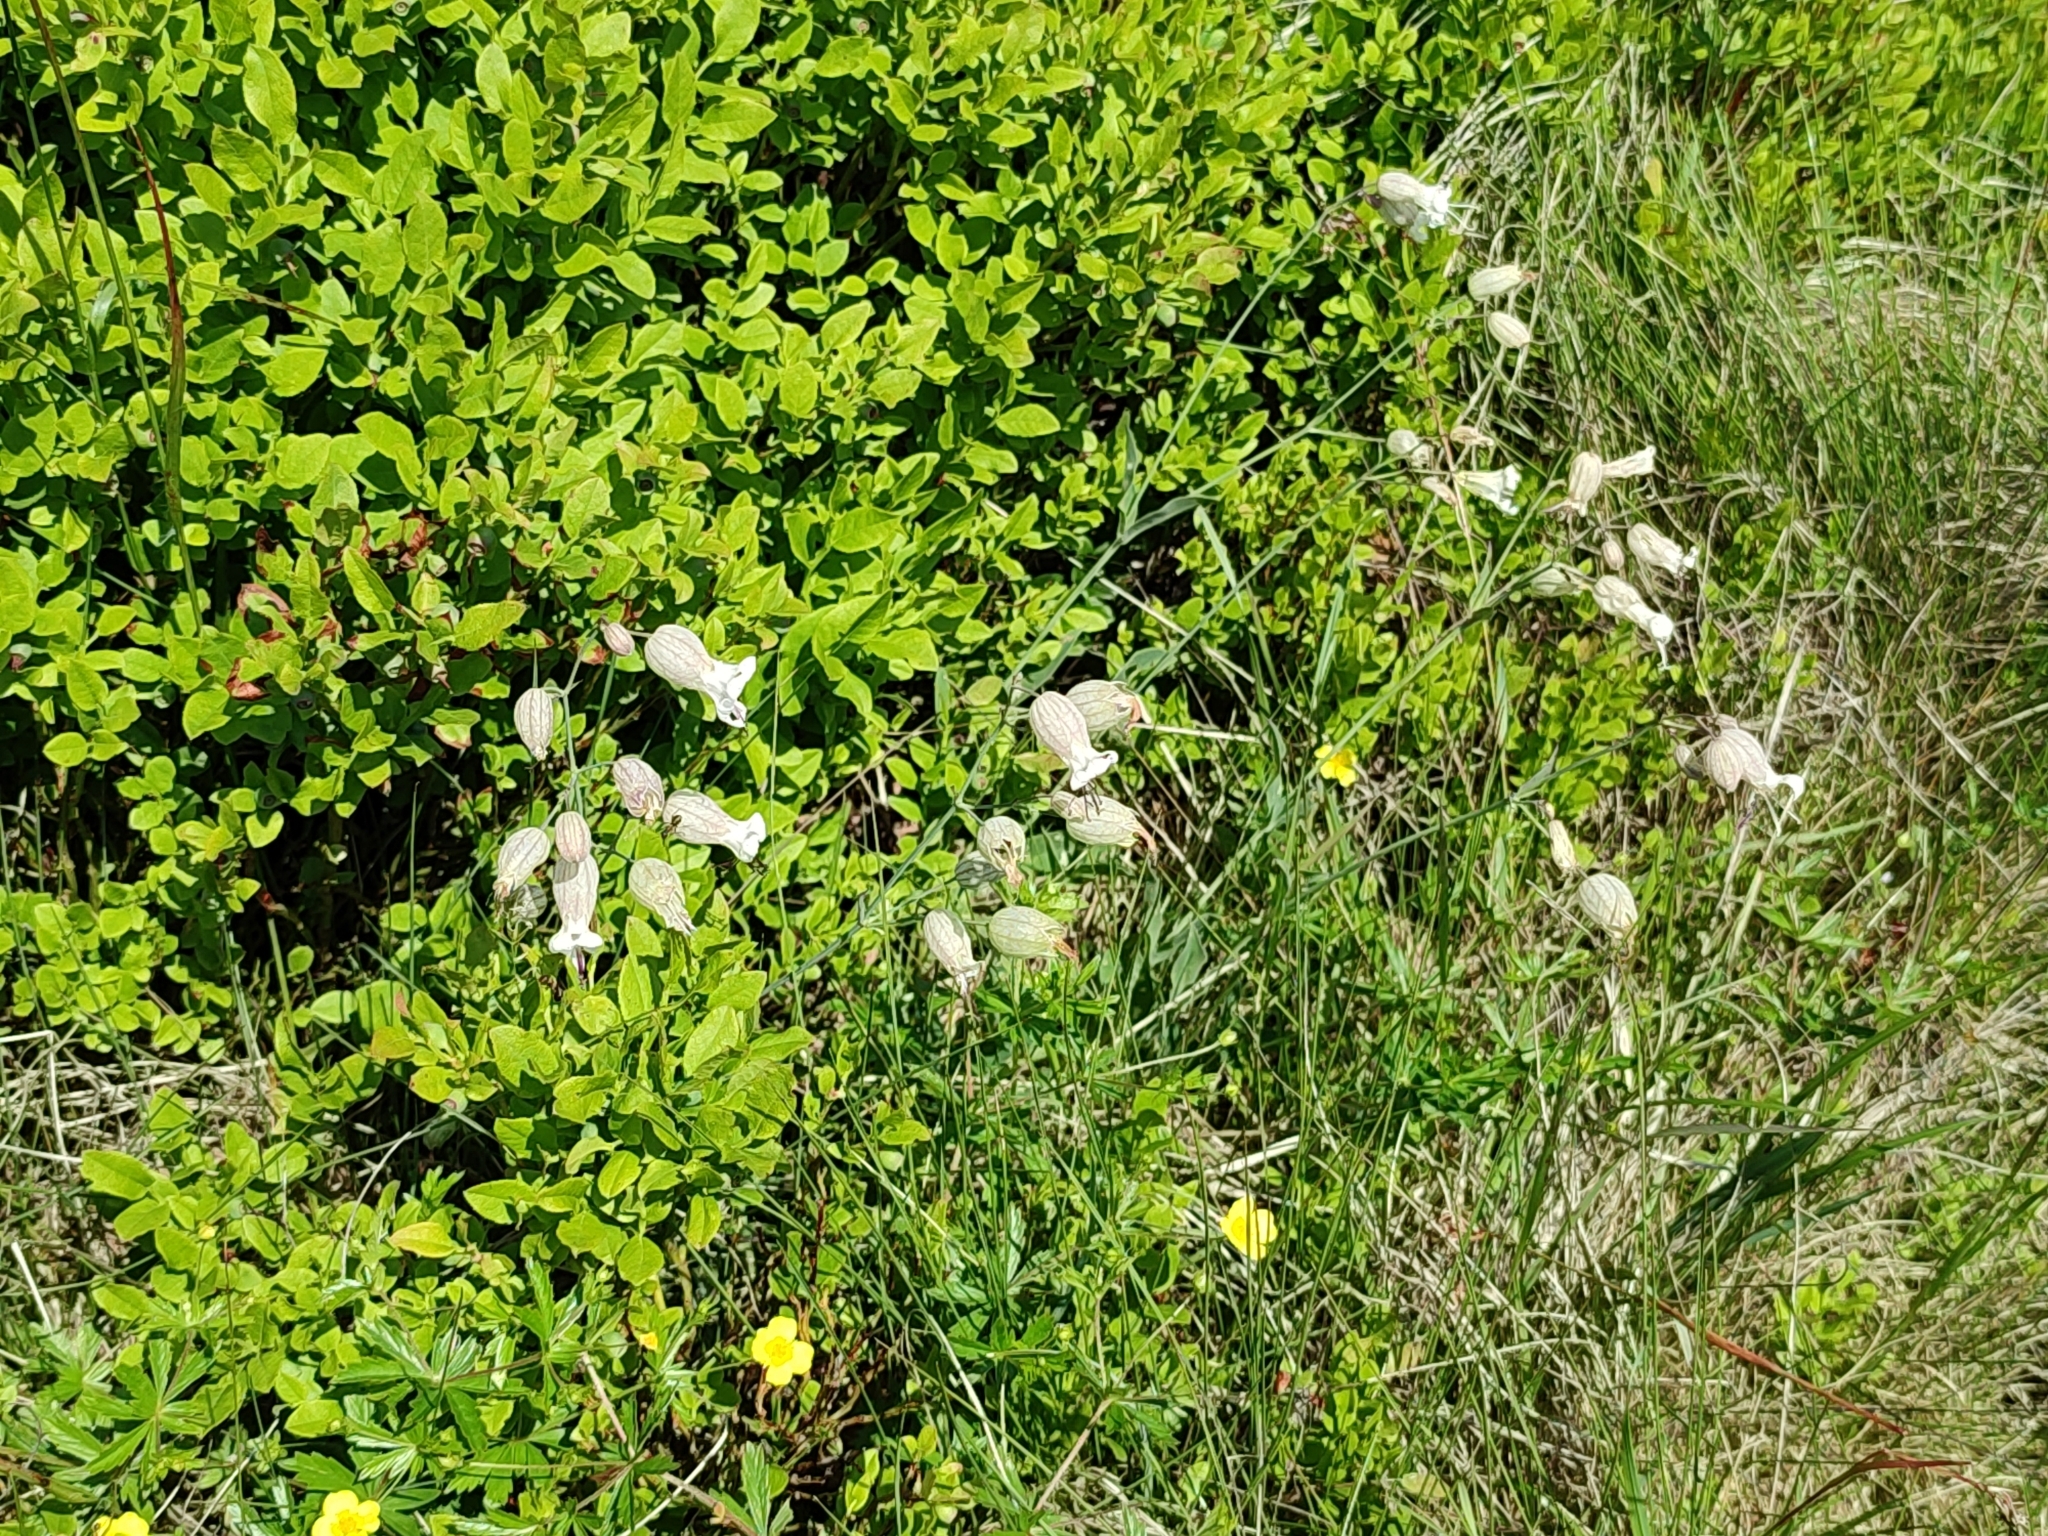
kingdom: Plantae
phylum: Tracheophyta
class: Magnoliopsida
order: Caryophyllales
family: Caryophyllaceae
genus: Silene
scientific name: Silene vulgaris
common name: Bladder campion
